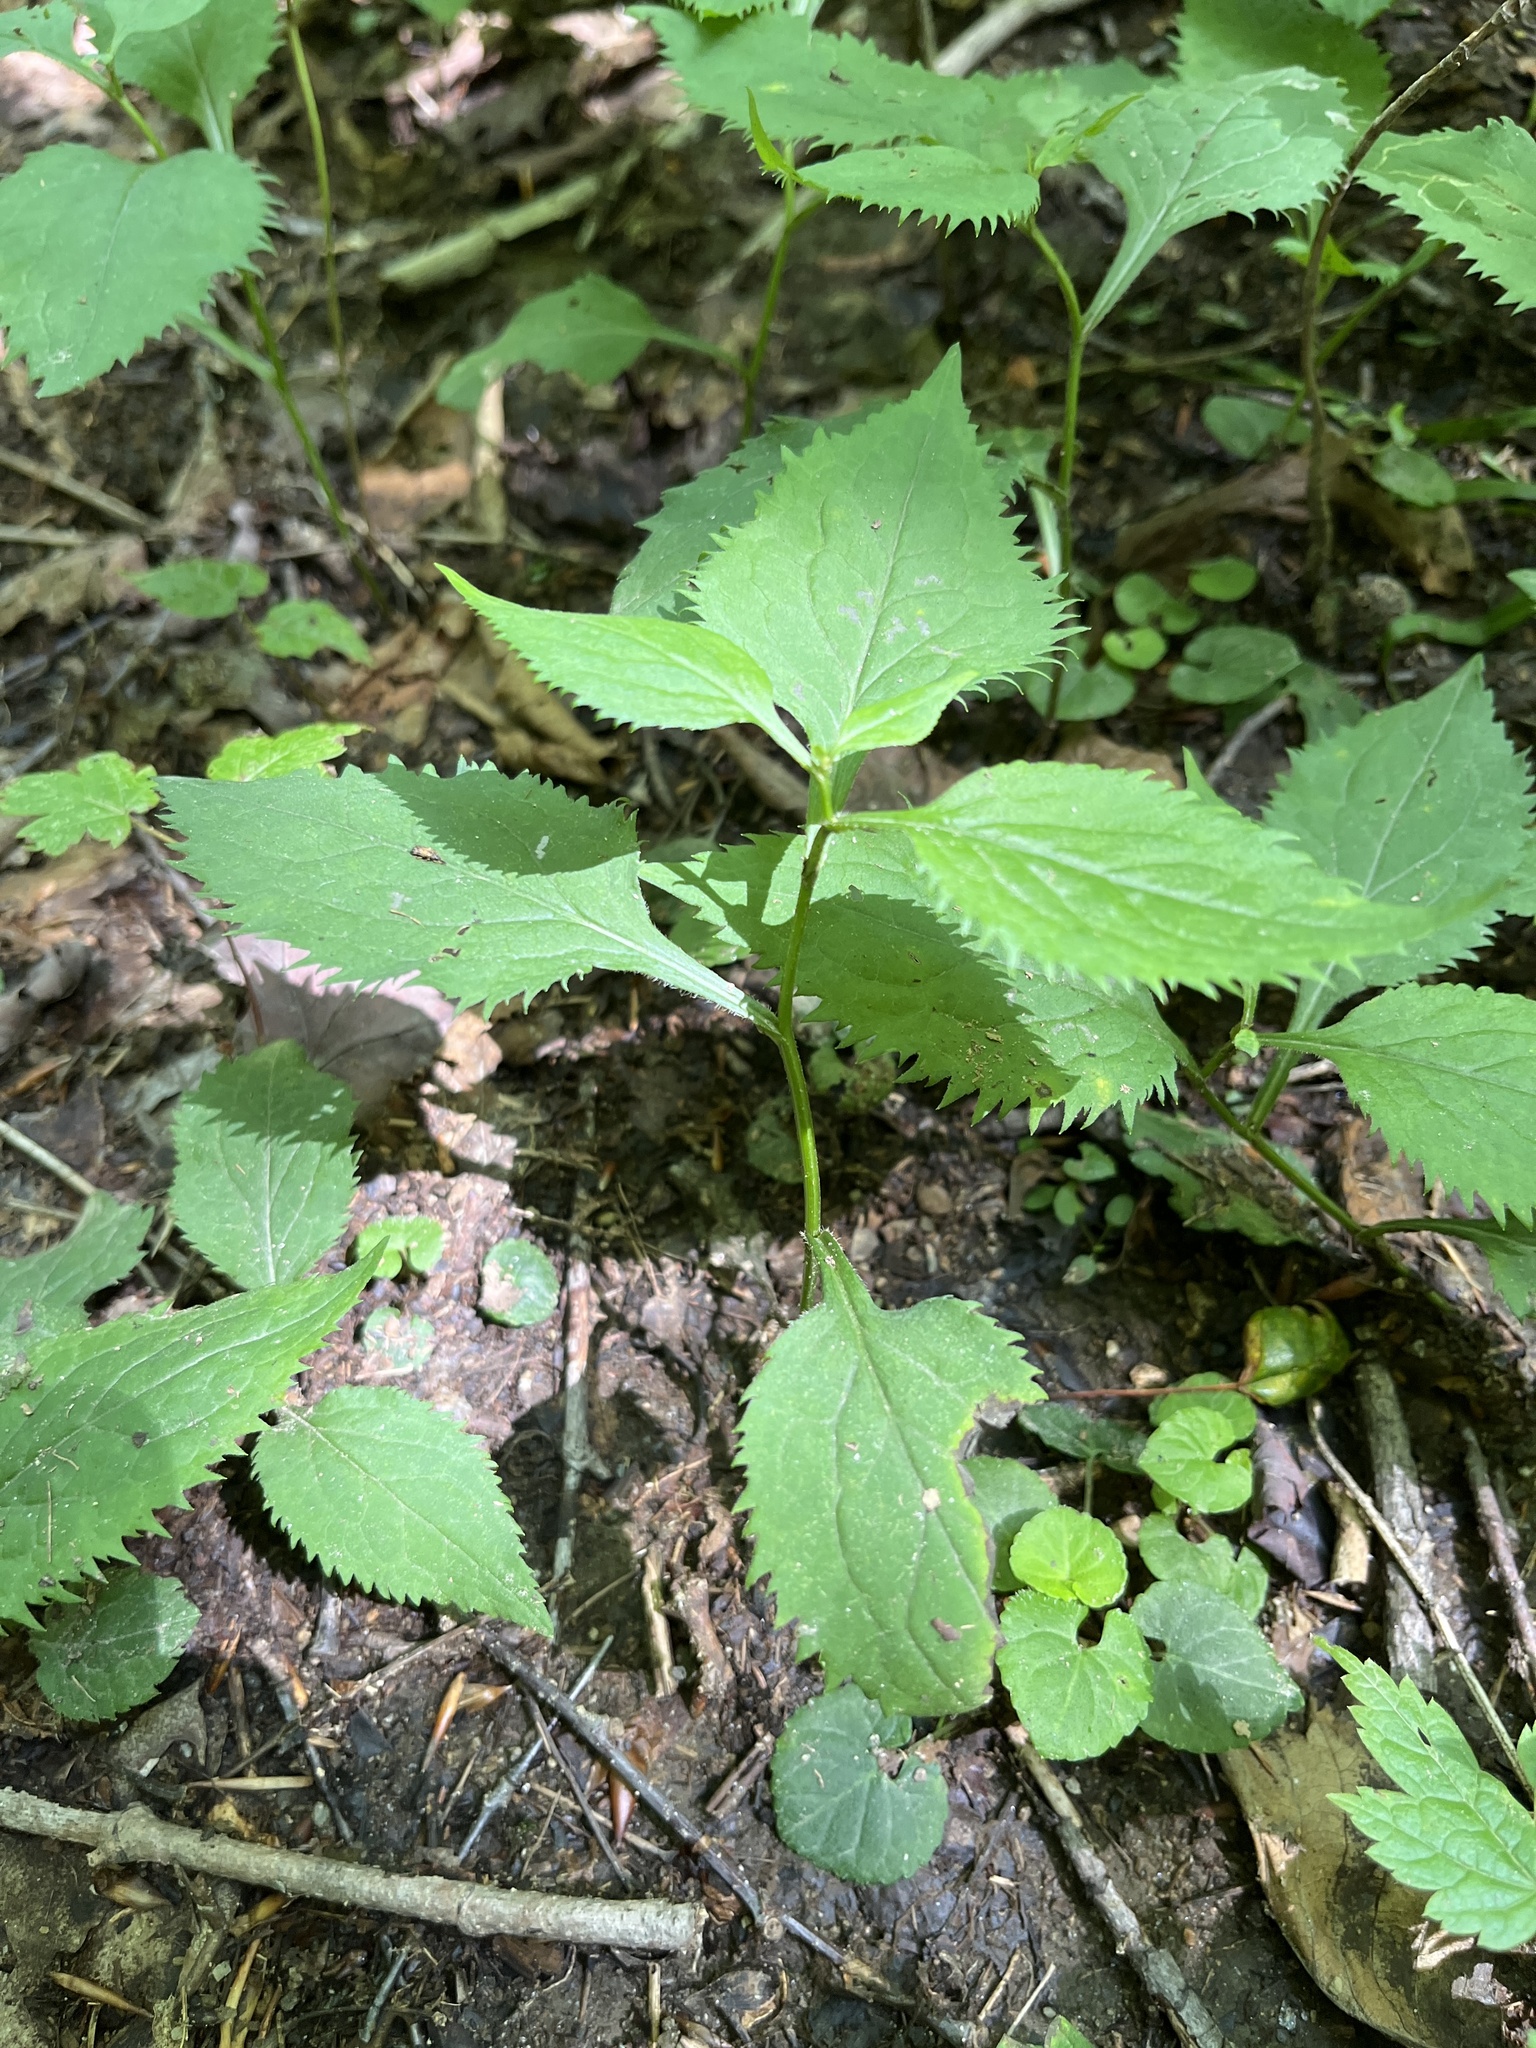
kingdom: Plantae
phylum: Tracheophyta
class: Magnoliopsida
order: Asterales
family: Asteraceae
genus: Solidago
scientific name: Solidago flexicaulis
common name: Zig-zag goldenrod
